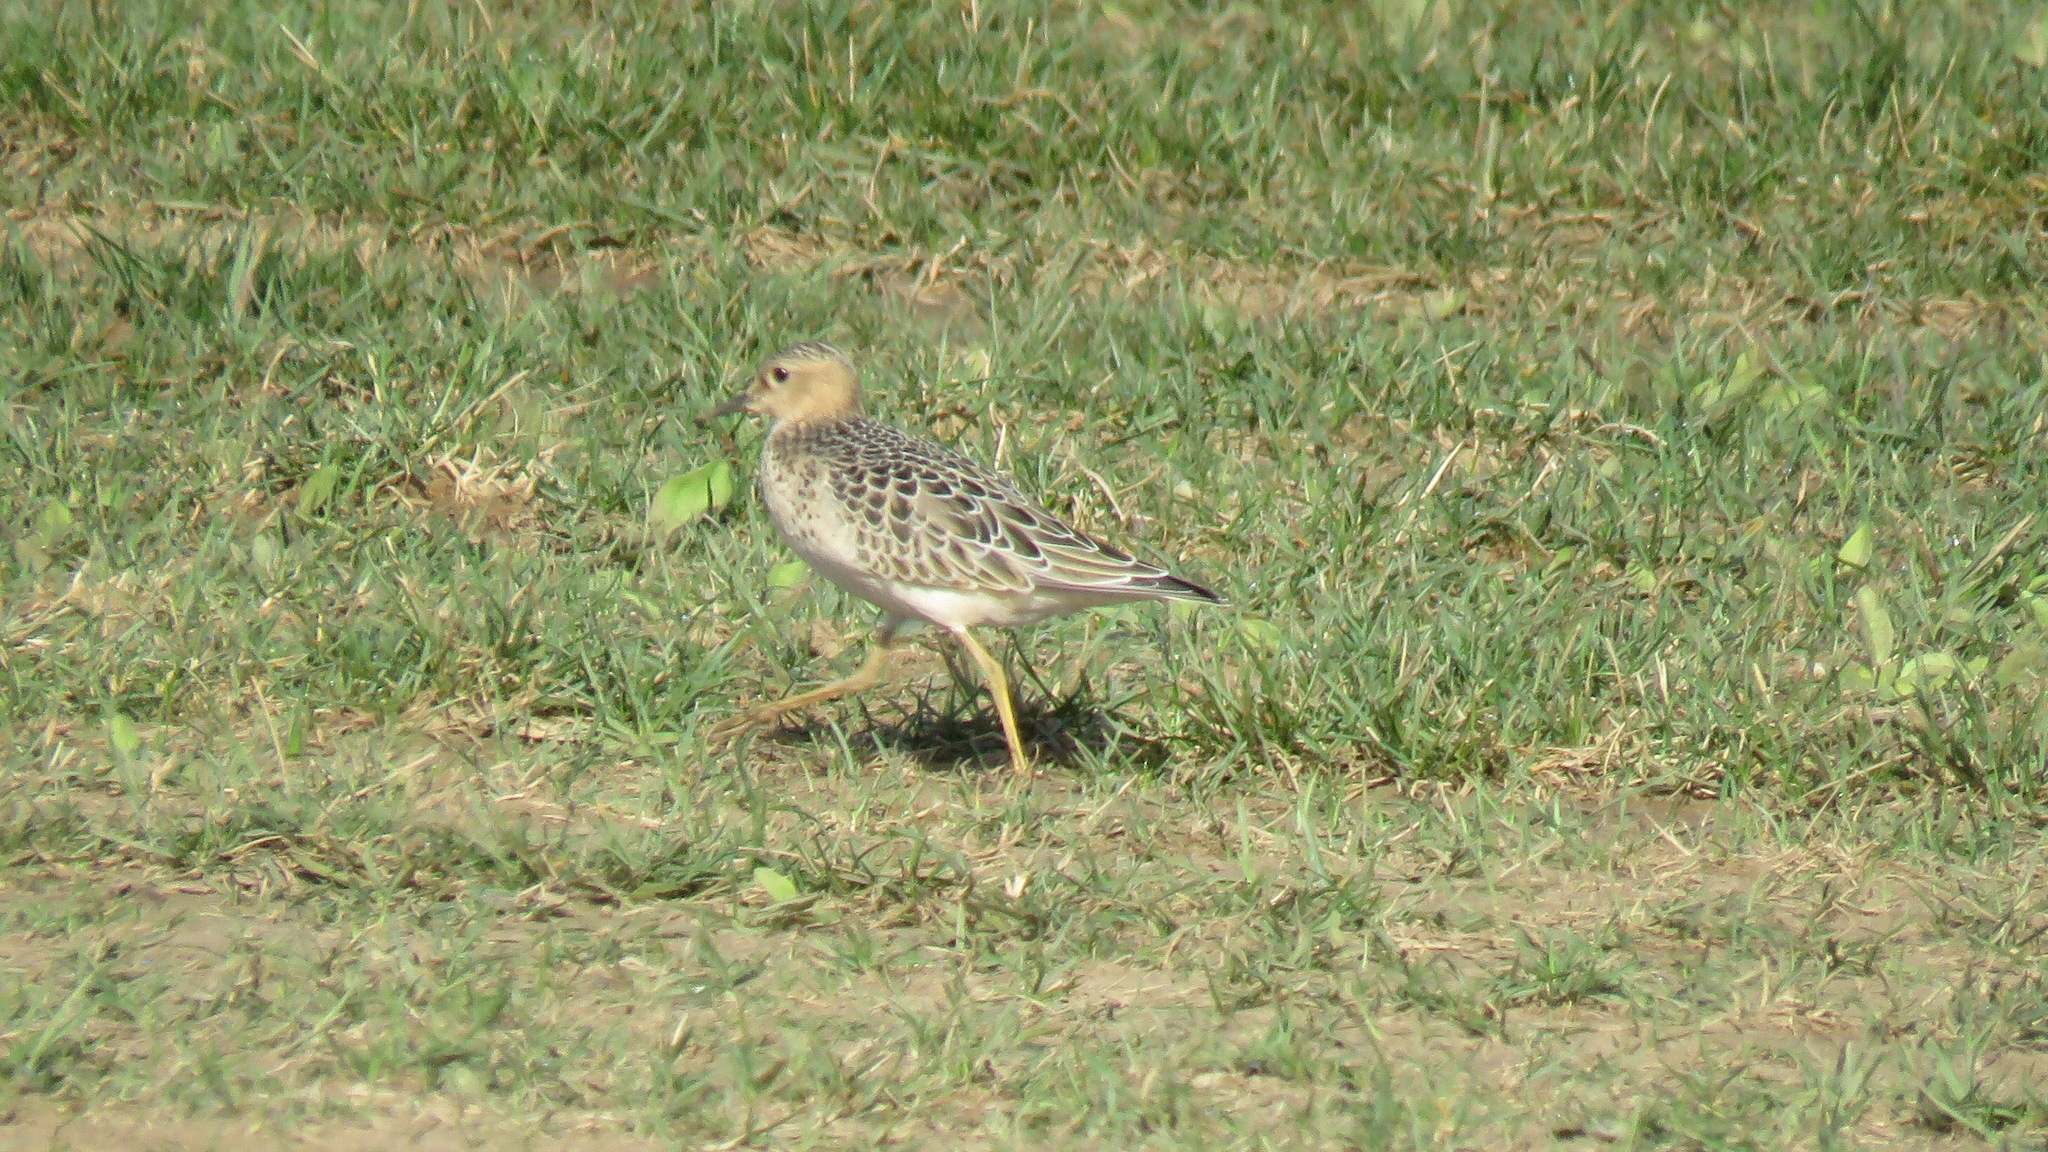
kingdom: Animalia
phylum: Chordata
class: Aves
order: Charadriiformes
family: Scolopacidae
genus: Calidris
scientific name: Calidris subruficollis
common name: Buff-breasted sandpiper
